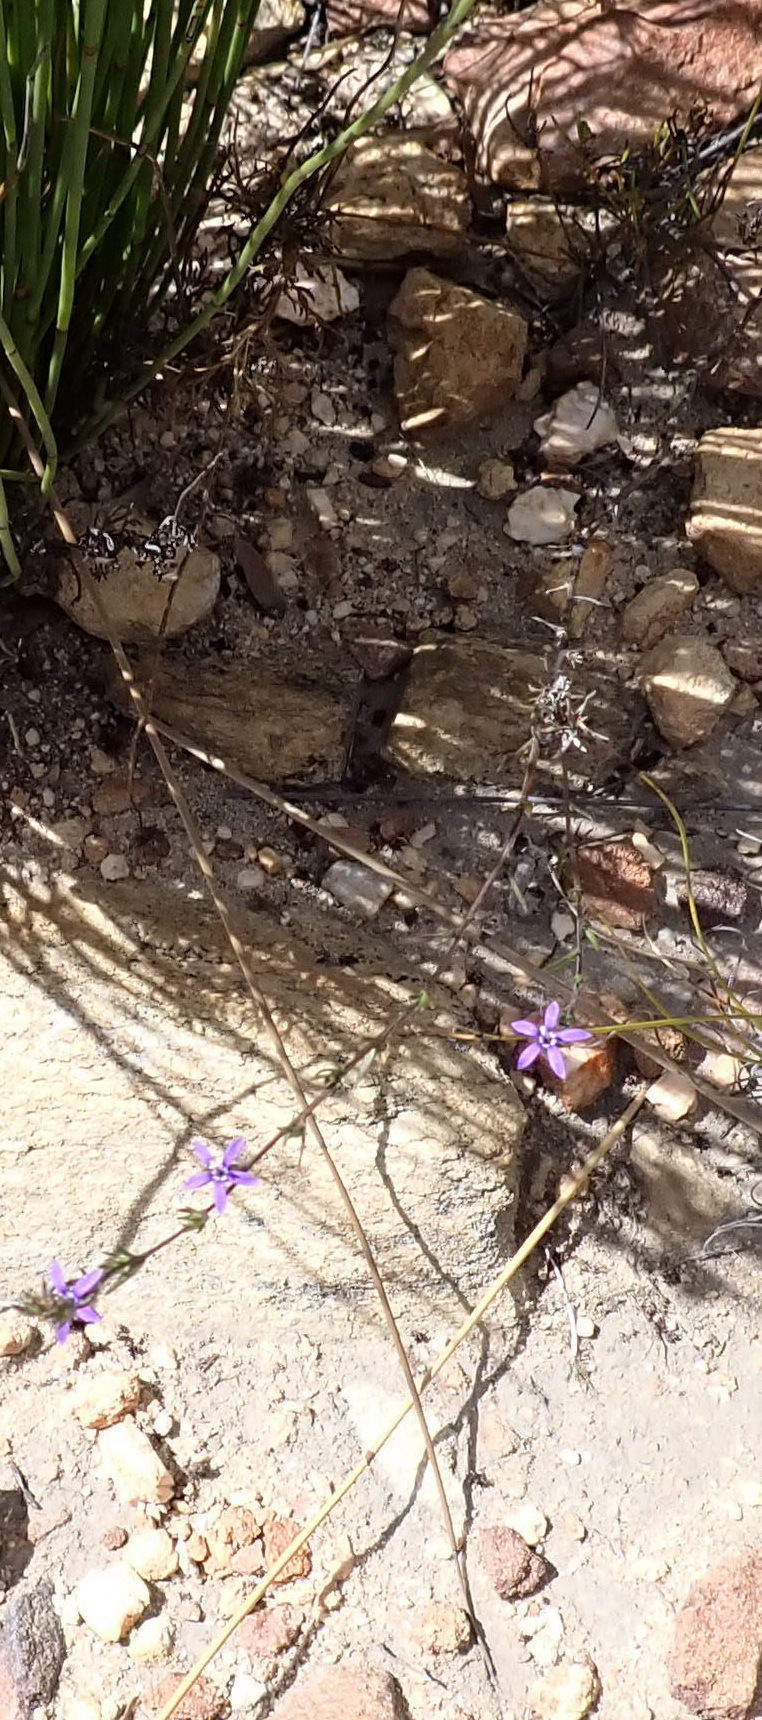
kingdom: Plantae
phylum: Tracheophyta
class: Magnoliopsida
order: Asterales
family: Campanulaceae
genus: Theilera
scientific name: Theilera guthriei
